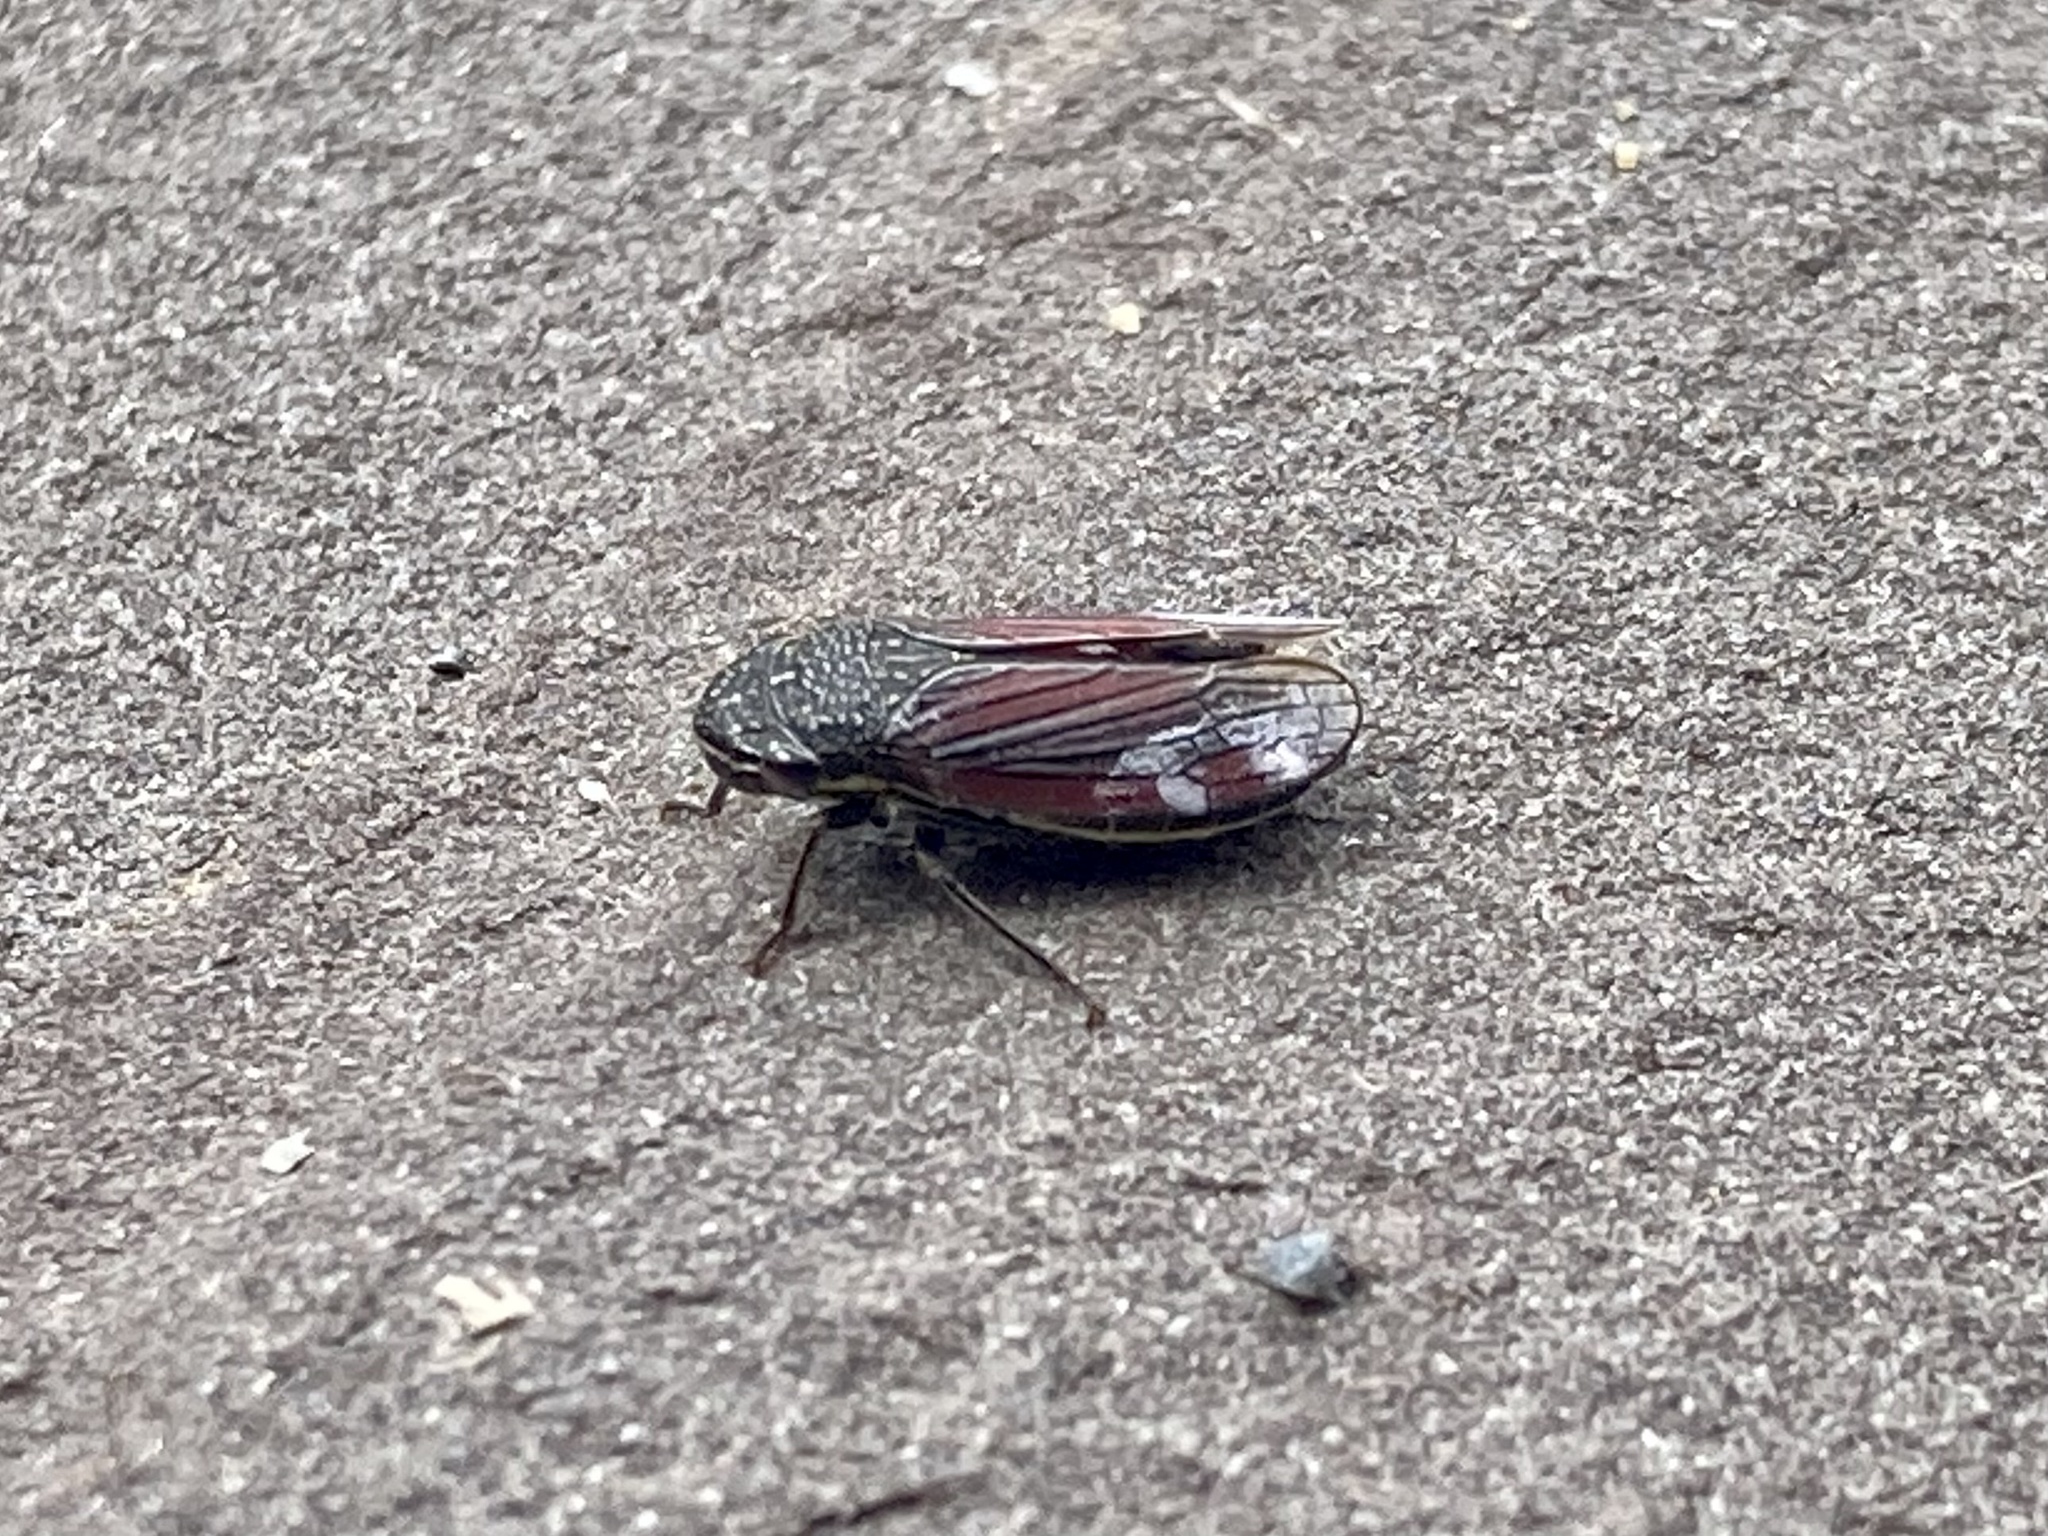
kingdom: Animalia
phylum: Arthropoda
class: Insecta
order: Hemiptera
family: Cicadellidae
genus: Cuerna
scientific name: Cuerna striata
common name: Striped leafhopper
